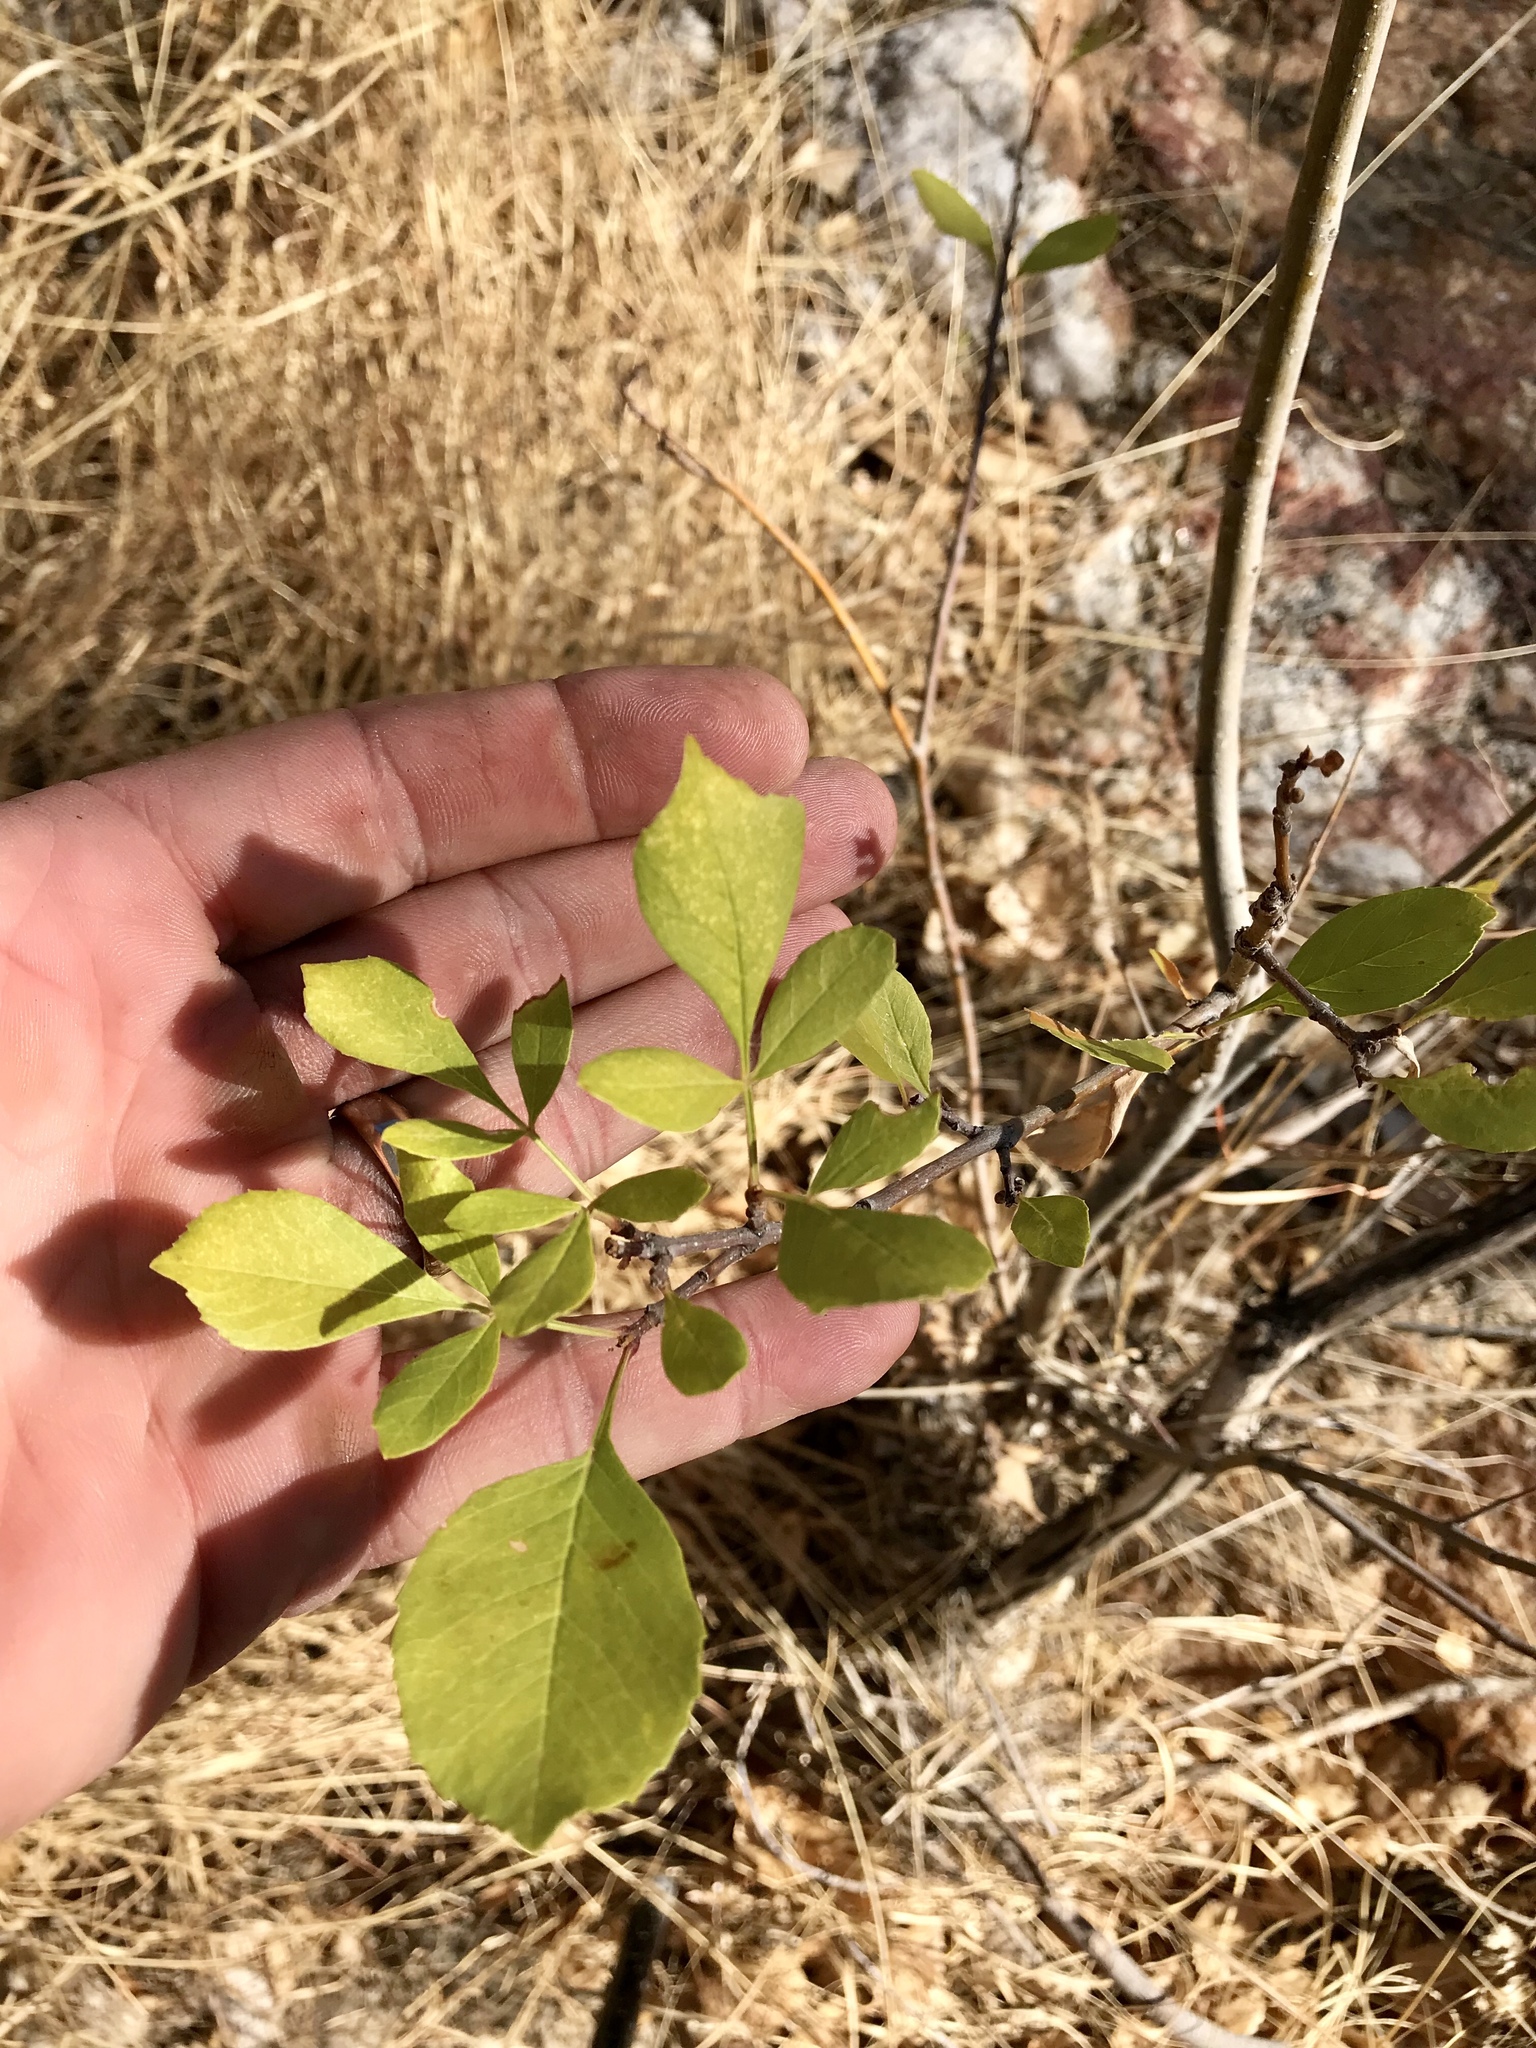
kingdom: Plantae
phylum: Tracheophyta
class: Magnoliopsida
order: Lamiales
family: Oleaceae
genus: Fraxinus
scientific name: Fraxinus velutina
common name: Arizon ash
